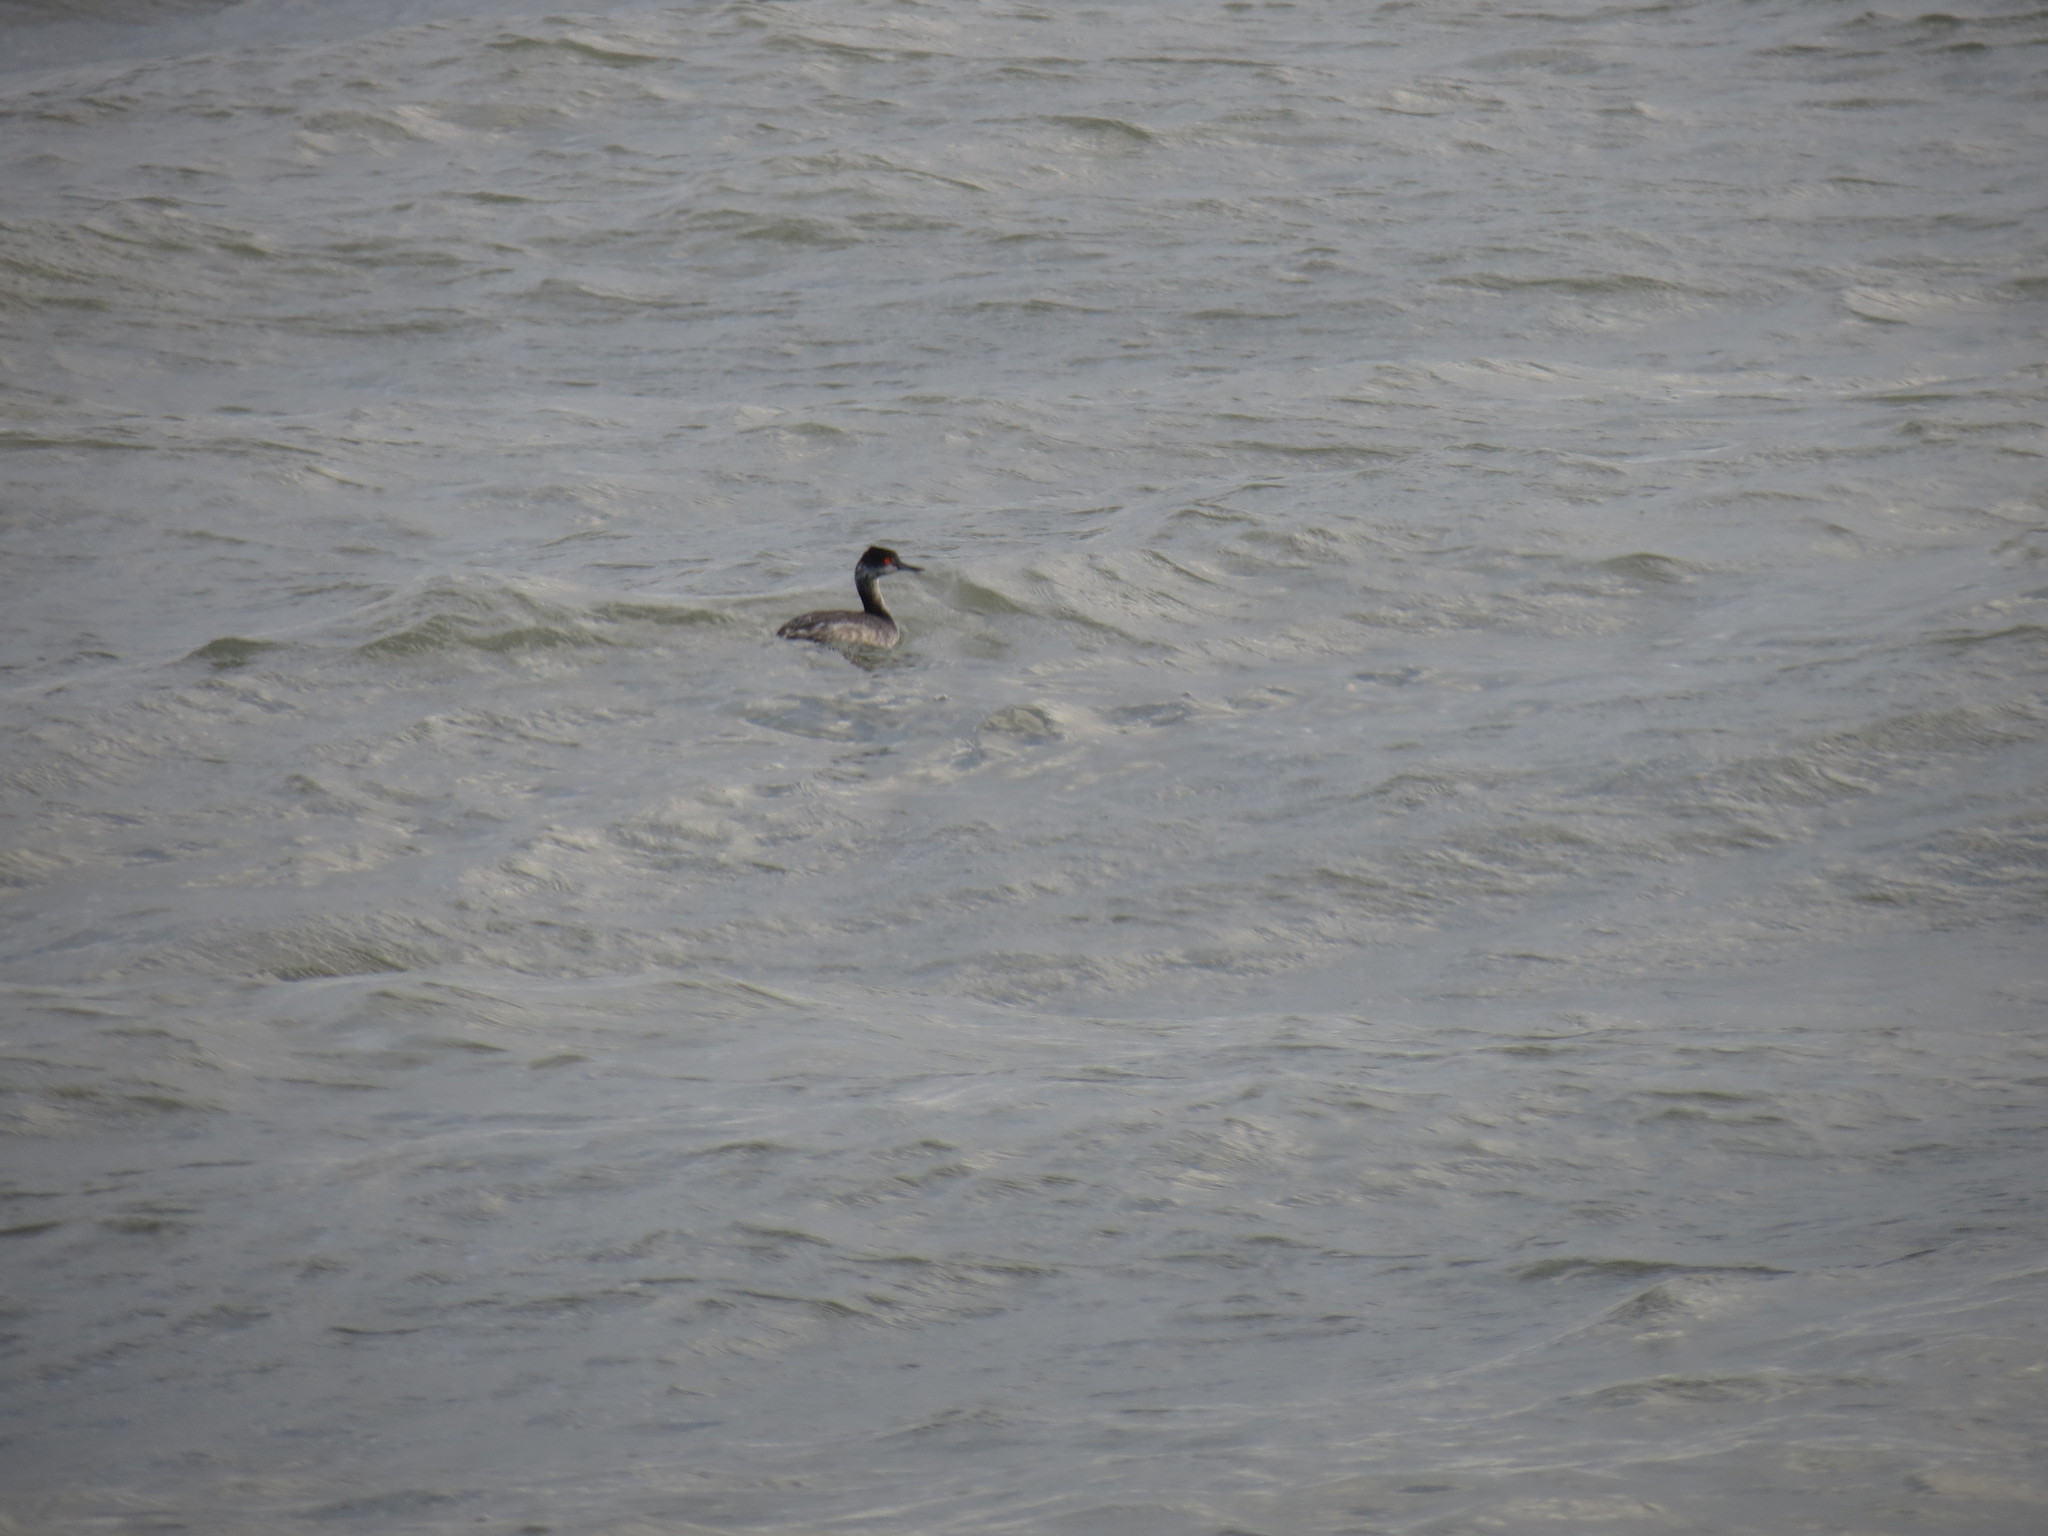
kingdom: Animalia
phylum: Chordata
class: Aves
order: Podicipediformes
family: Podicipedidae
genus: Podiceps
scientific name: Podiceps nigricollis
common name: Black-necked grebe
